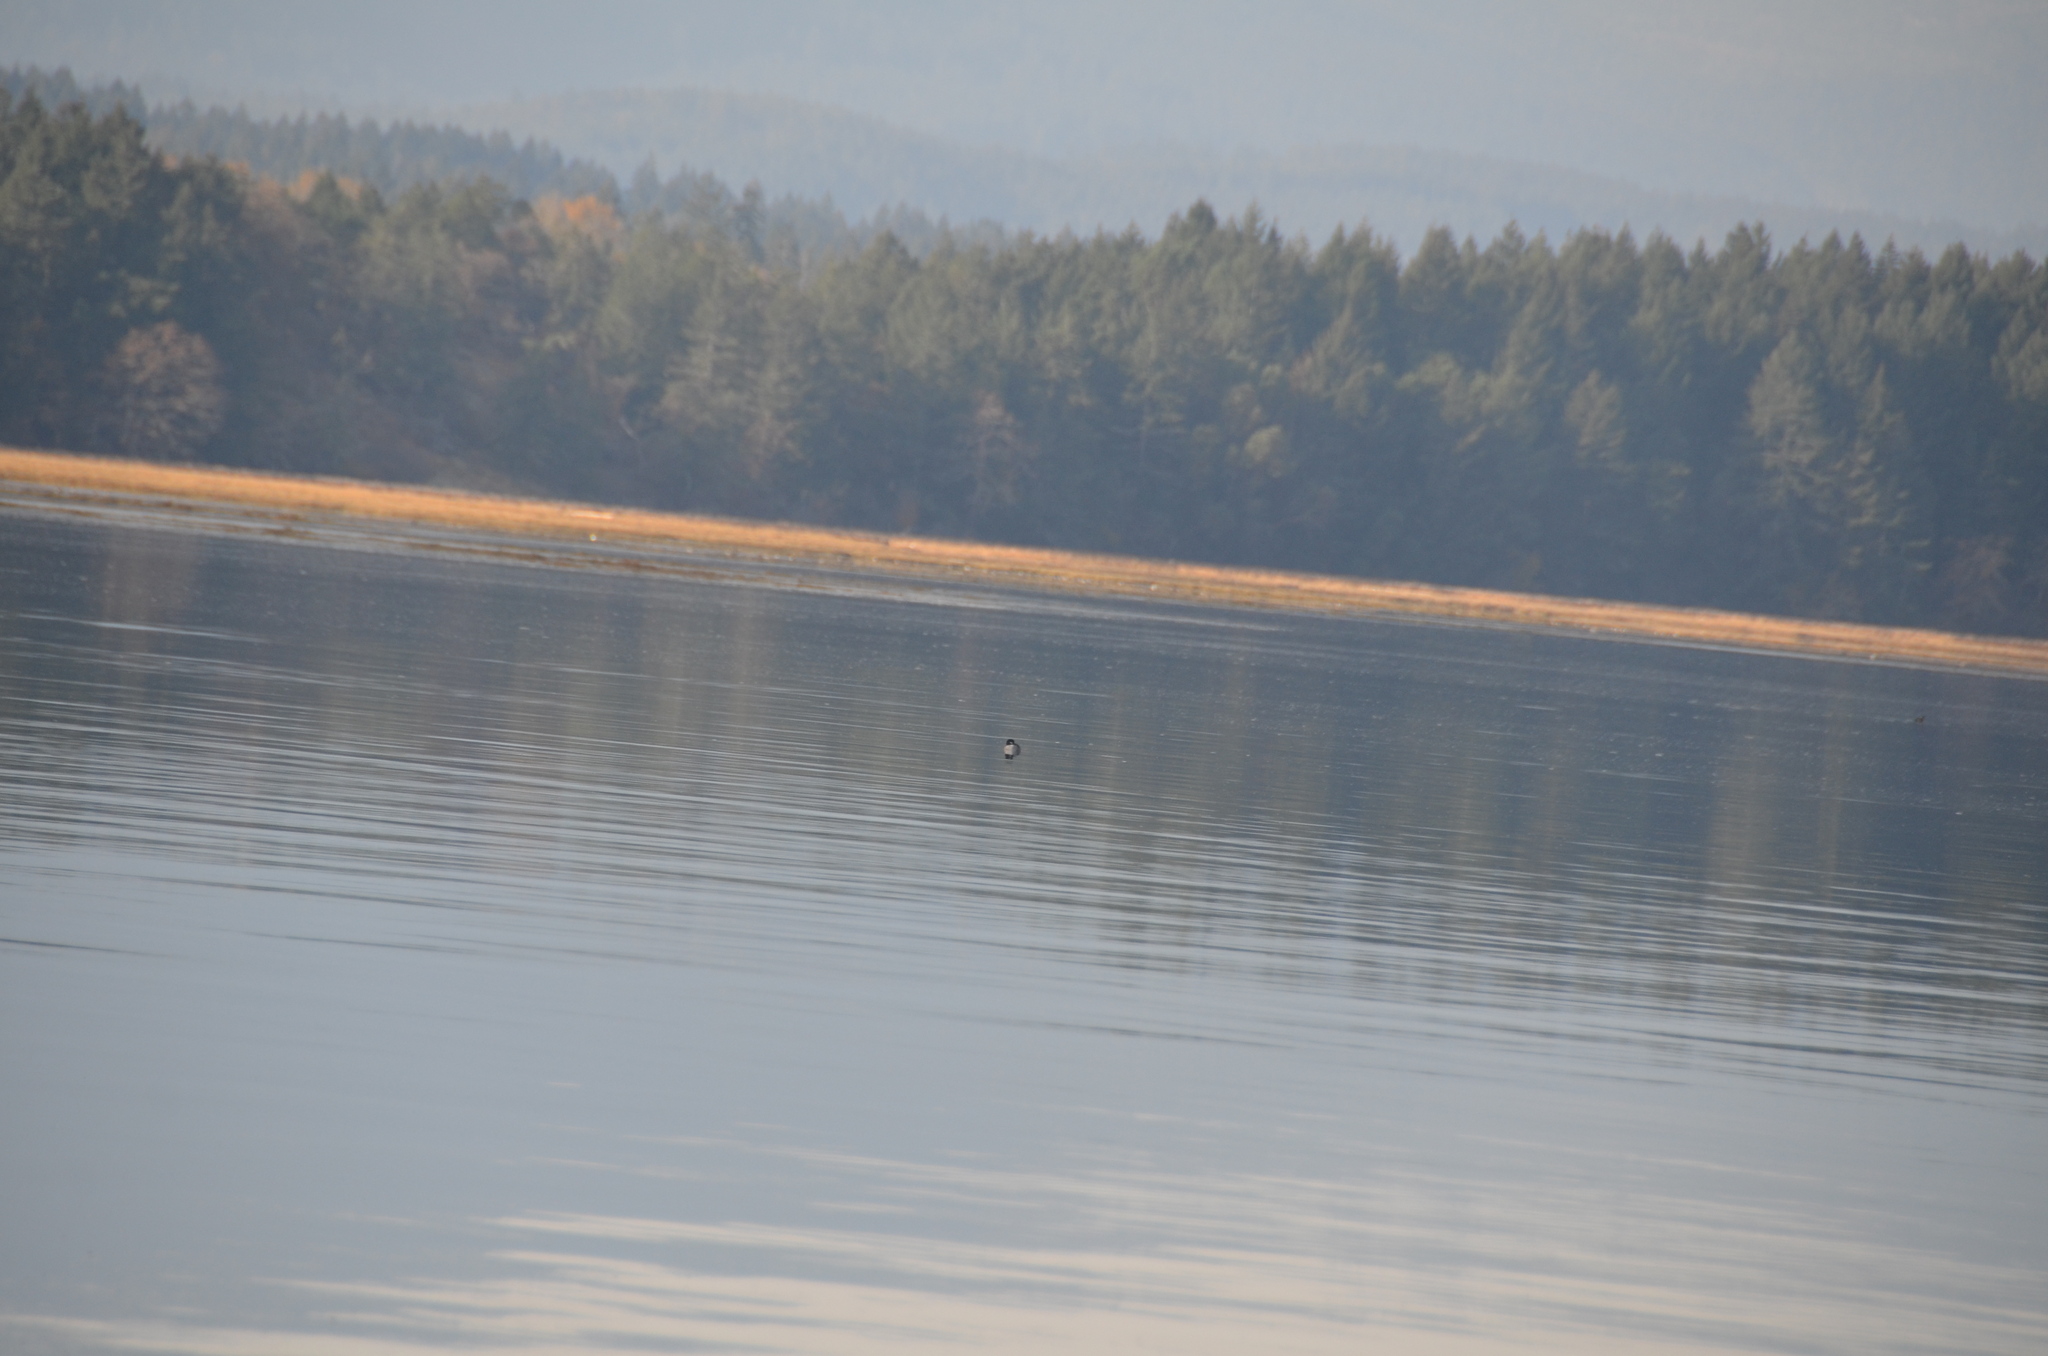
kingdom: Animalia
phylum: Chordata
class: Aves
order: Anseriformes
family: Anatidae
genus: Bucephala
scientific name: Bucephala albeola
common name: Bufflehead
